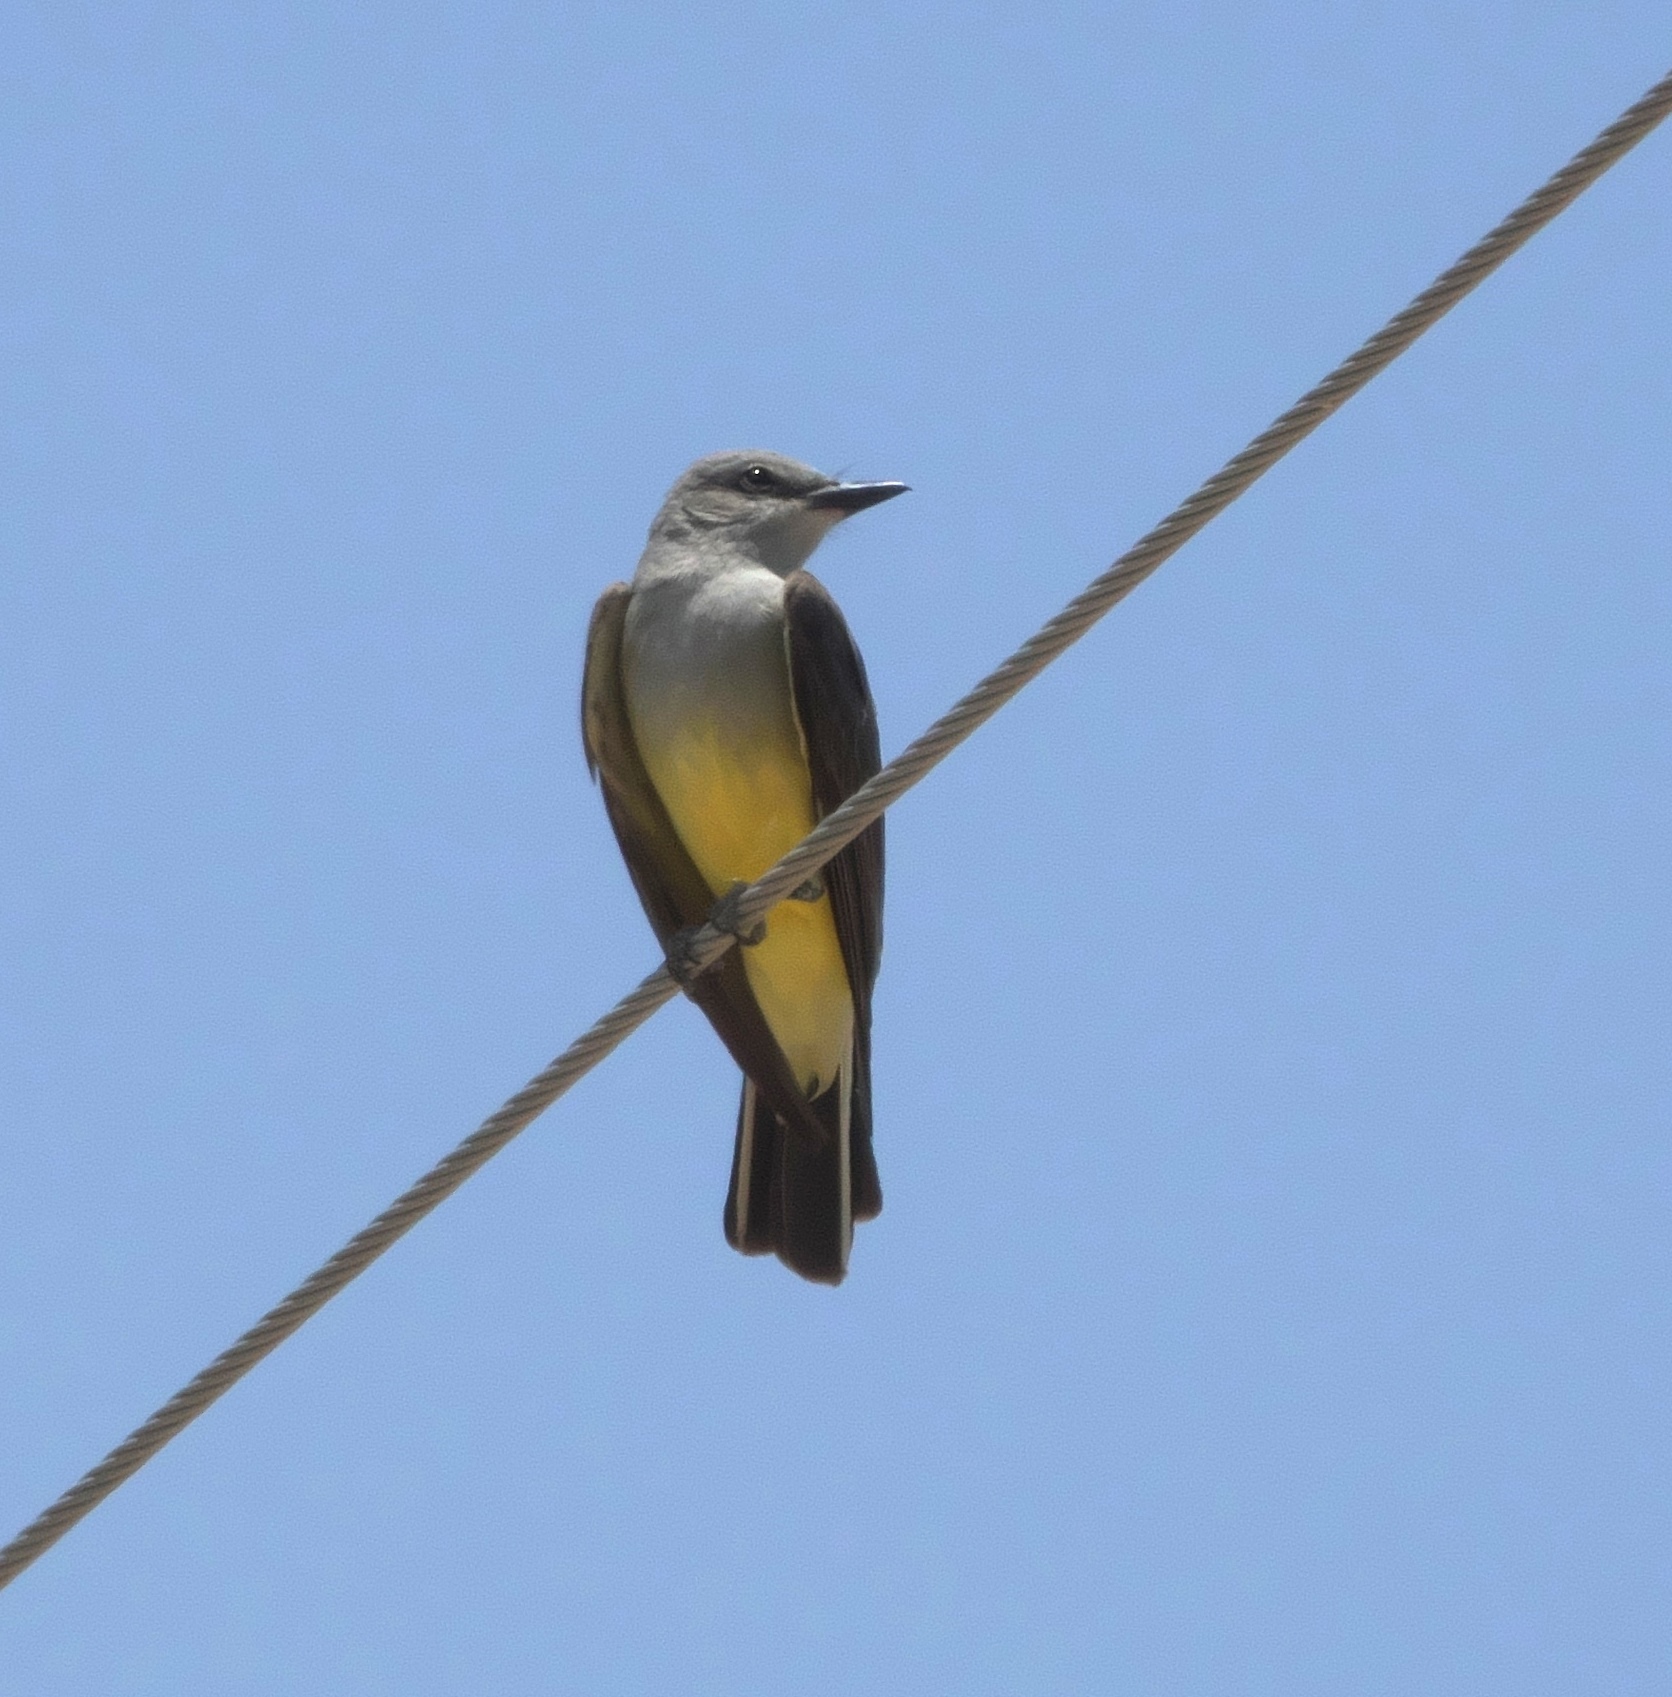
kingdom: Animalia
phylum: Chordata
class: Aves
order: Passeriformes
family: Tyrannidae
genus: Tyrannus
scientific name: Tyrannus verticalis
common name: Western kingbird
